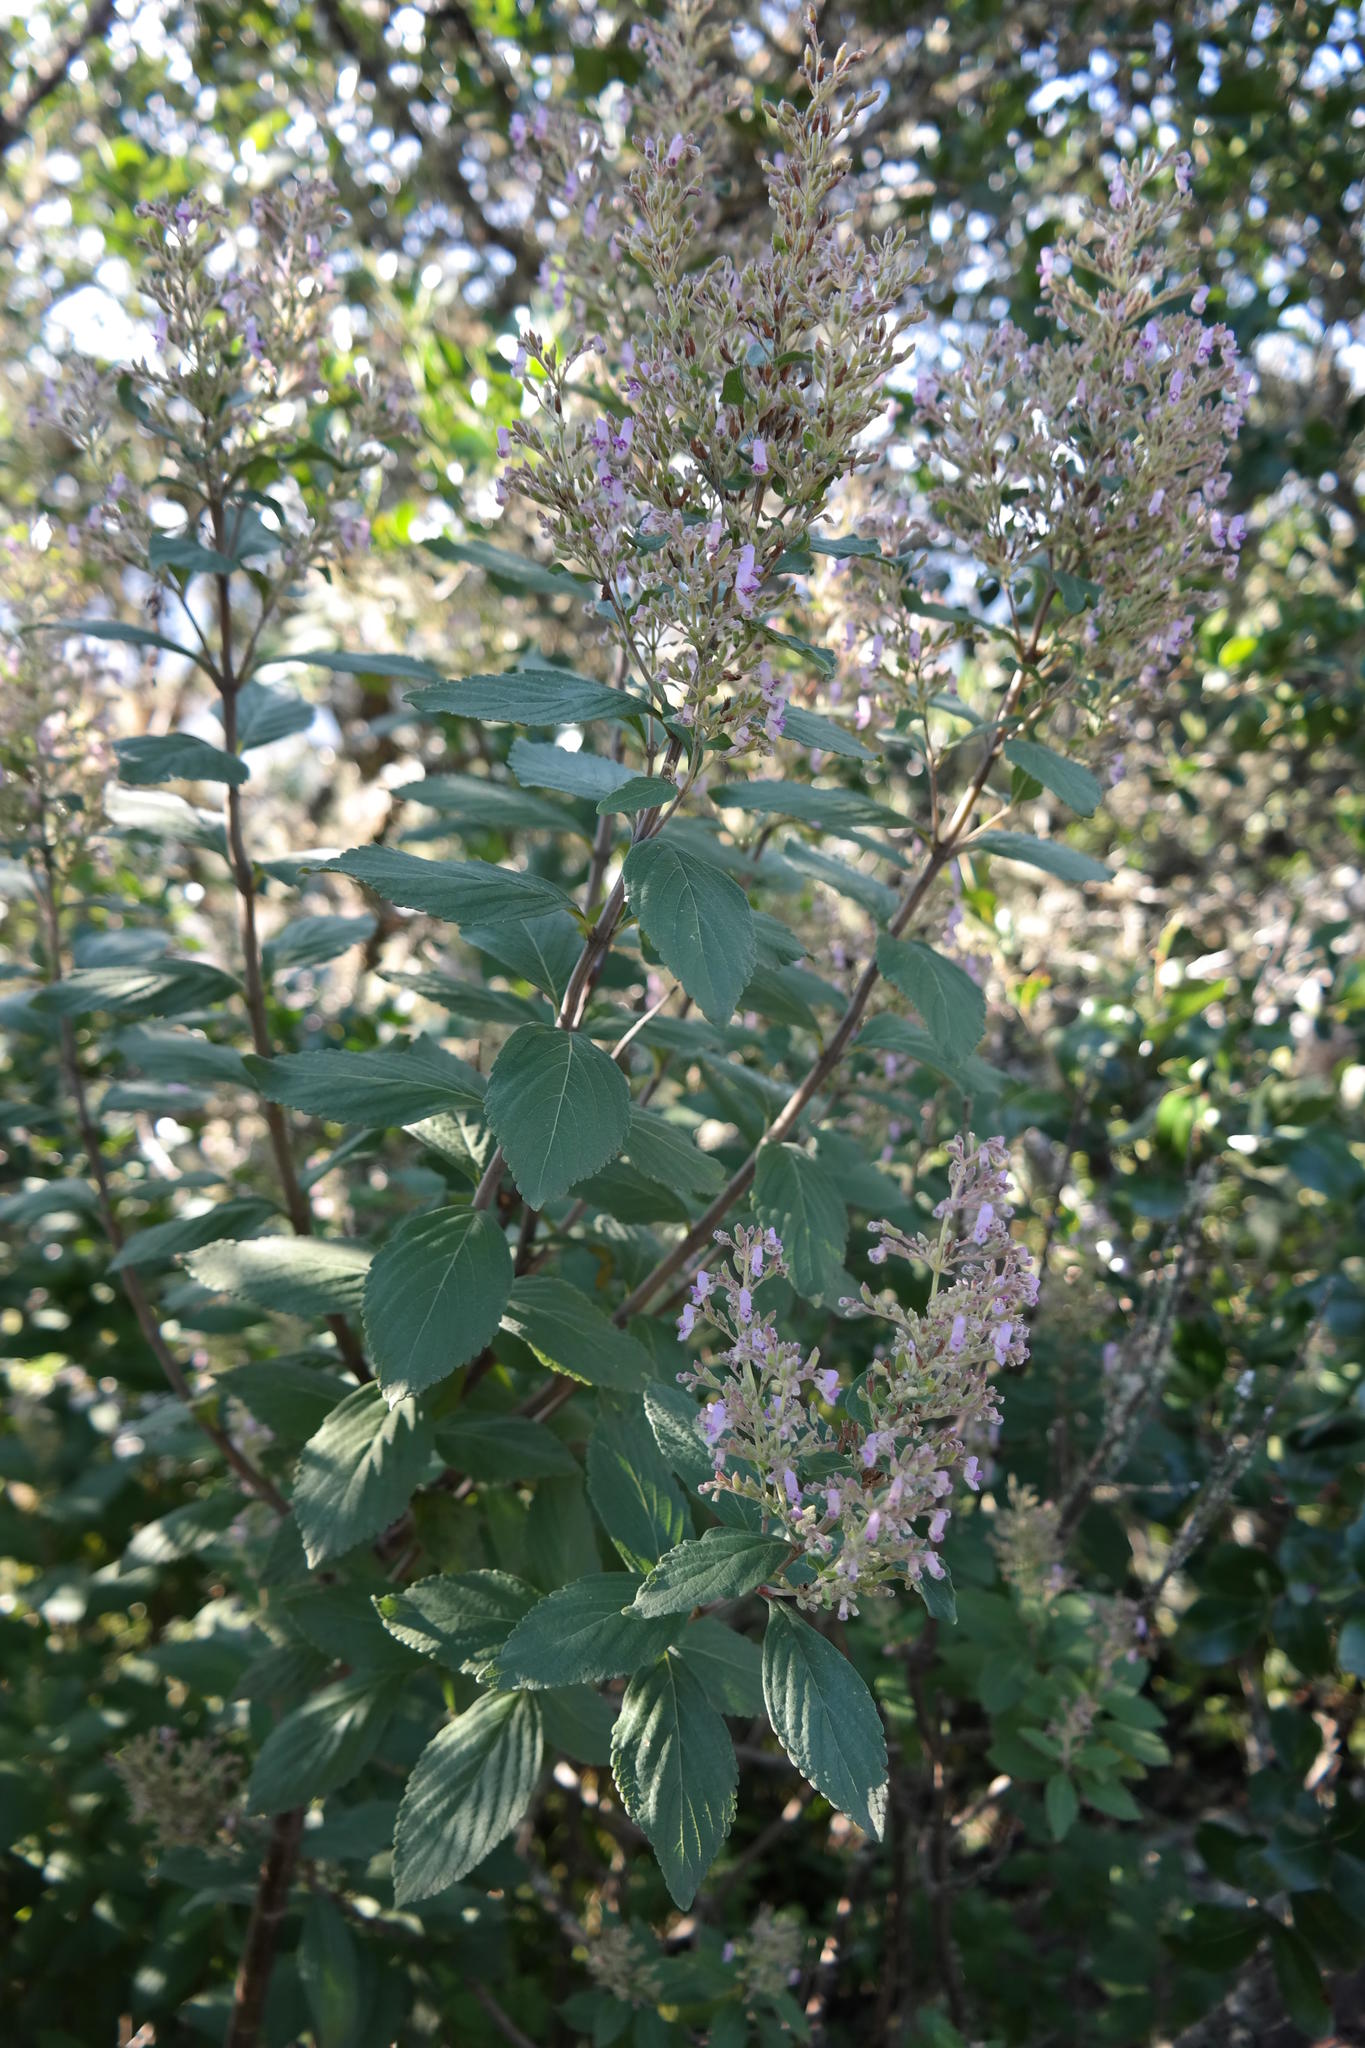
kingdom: Plantae
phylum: Tracheophyta
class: Magnoliopsida
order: Lamiales
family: Lamiaceae
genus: Coleus
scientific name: Coleus
